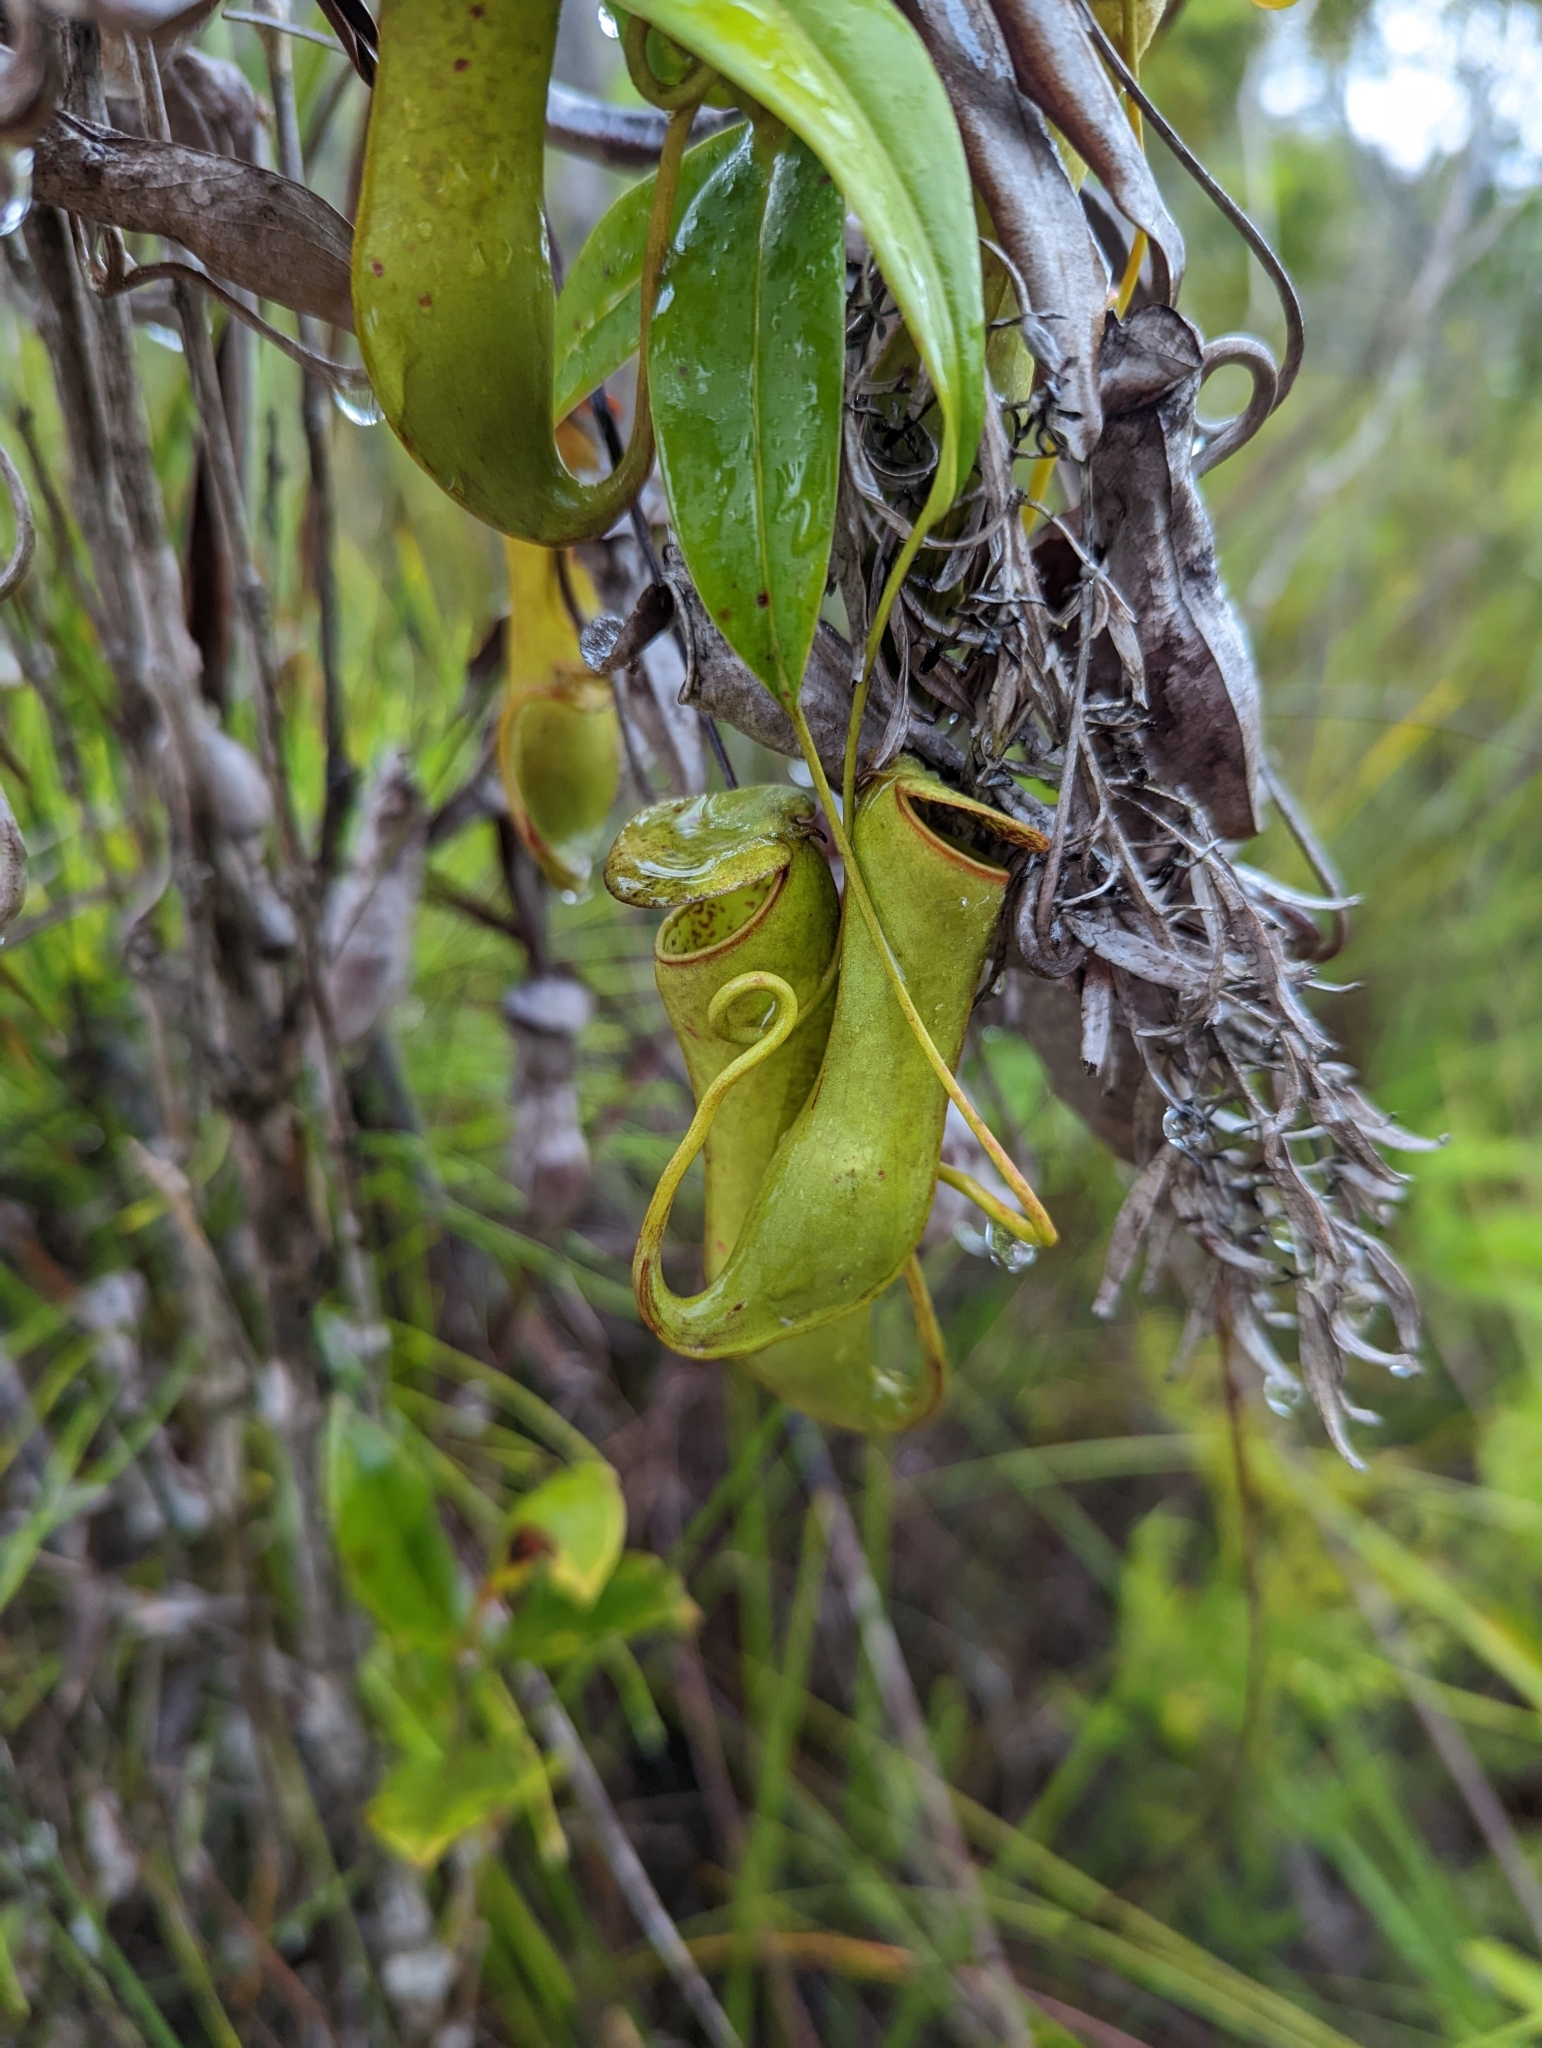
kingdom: Plantae
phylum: Tracheophyta
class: Magnoliopsida
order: Caryophyllales
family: Nepenthaceae
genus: Nepenthes
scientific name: Nepenthes gracilis
